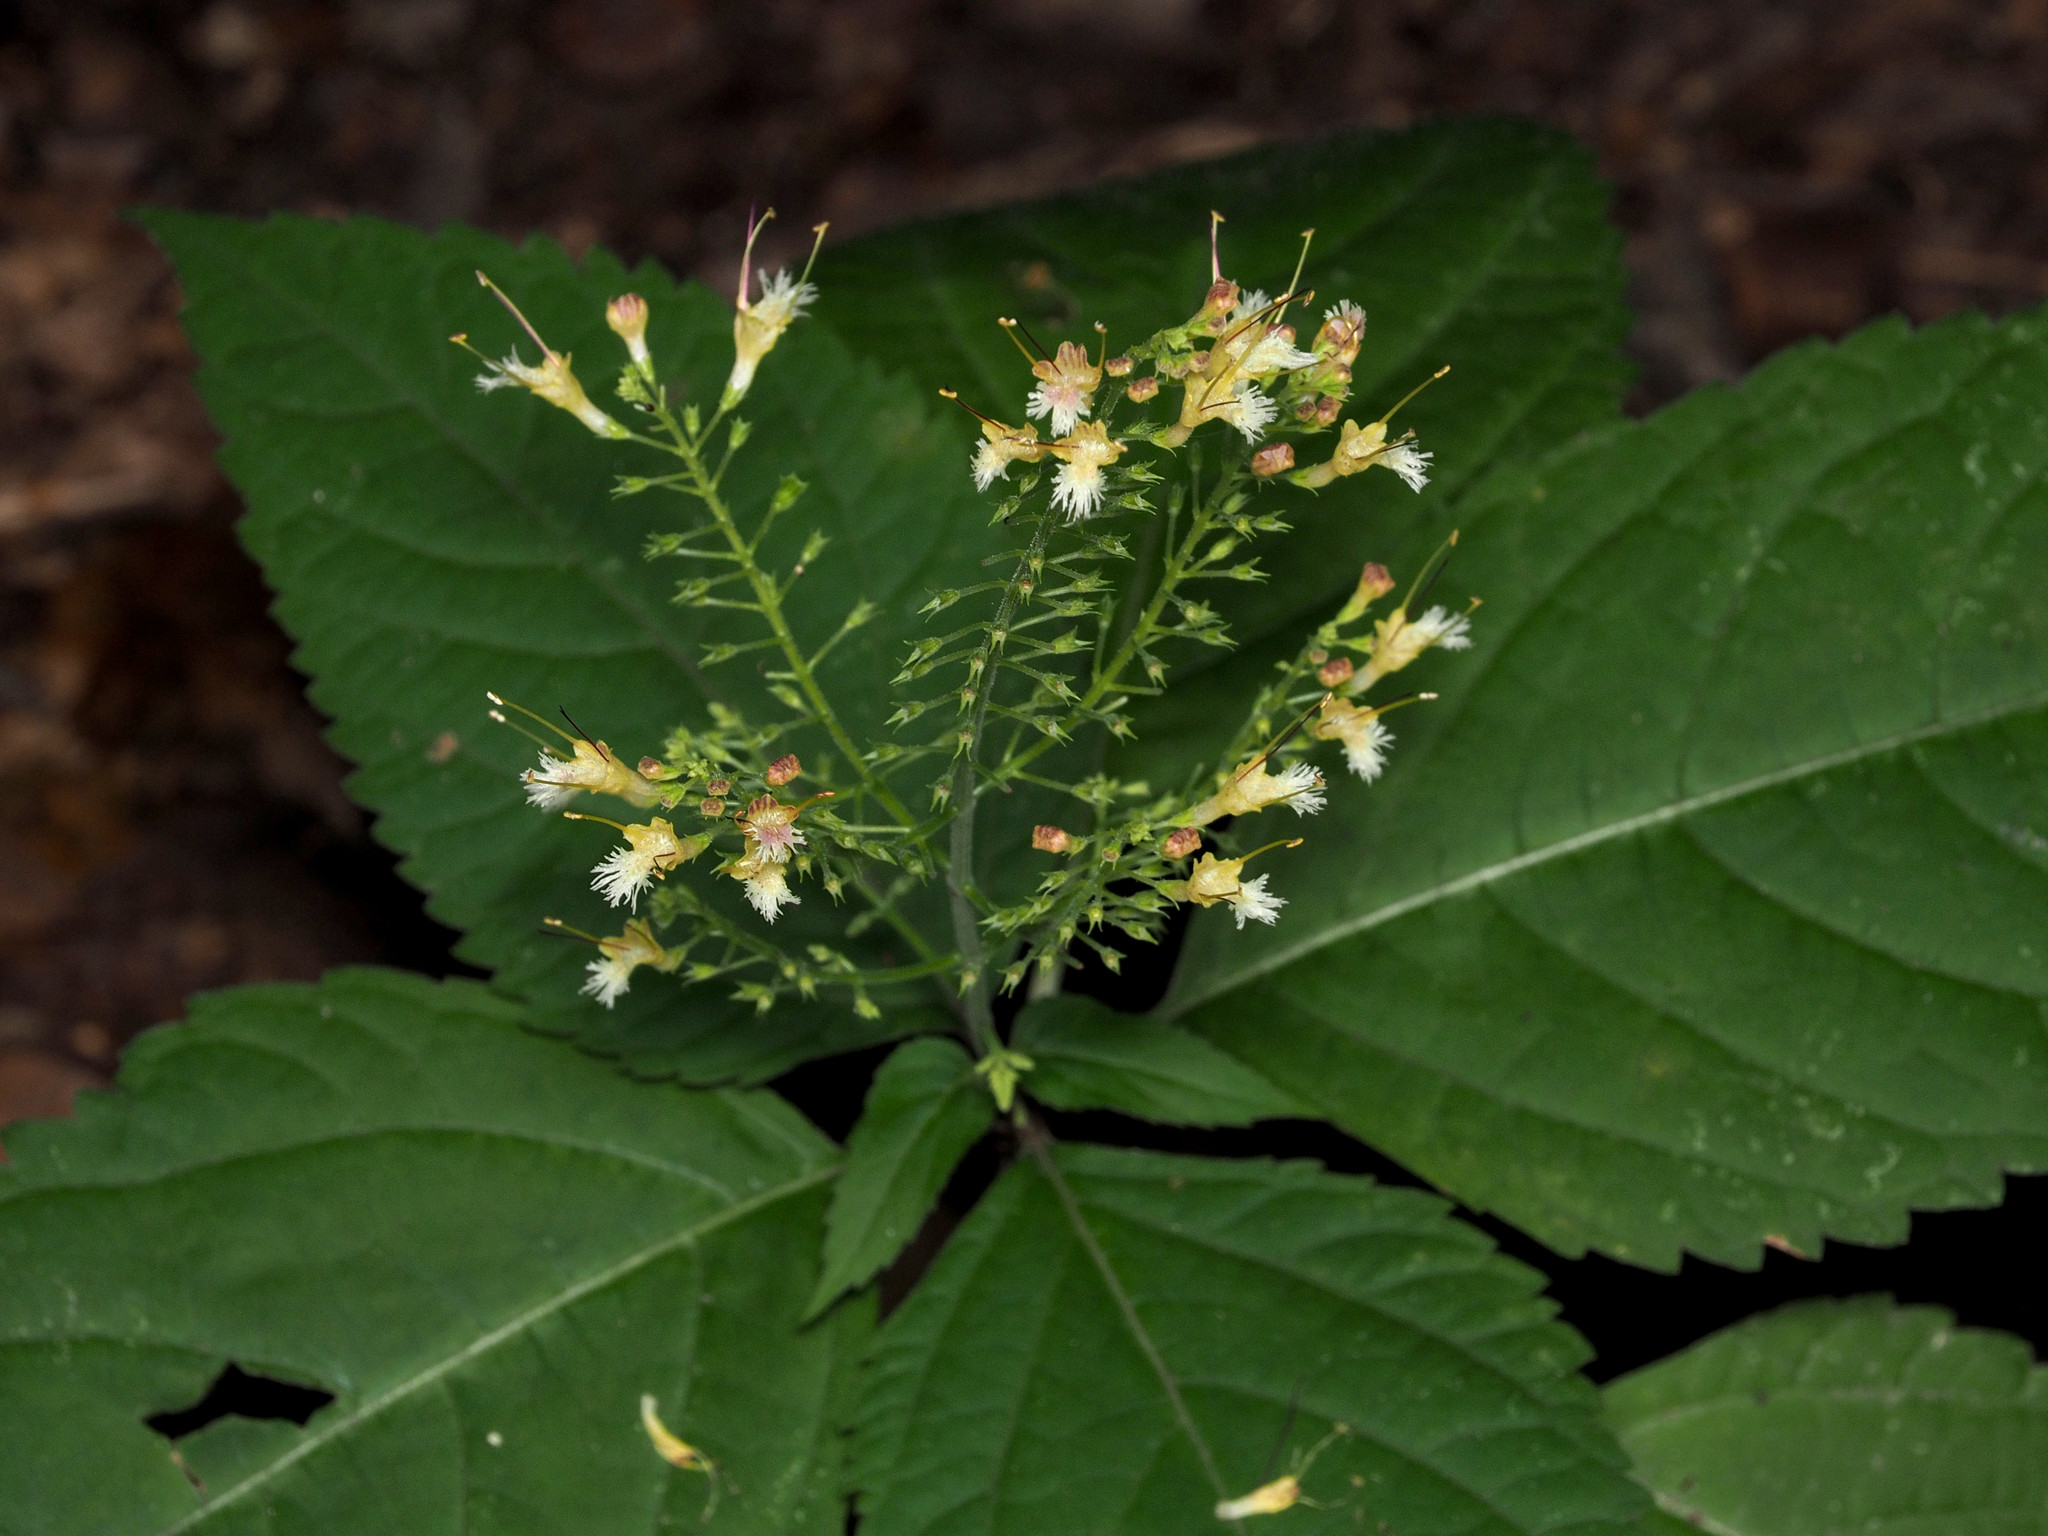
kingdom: Plantae
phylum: Tracheophyta
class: Magnoliopsida
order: Lamiales
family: Lamiaceae
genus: Collinsonia
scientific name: Collinsonia canadensis
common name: Northern horsebalm
